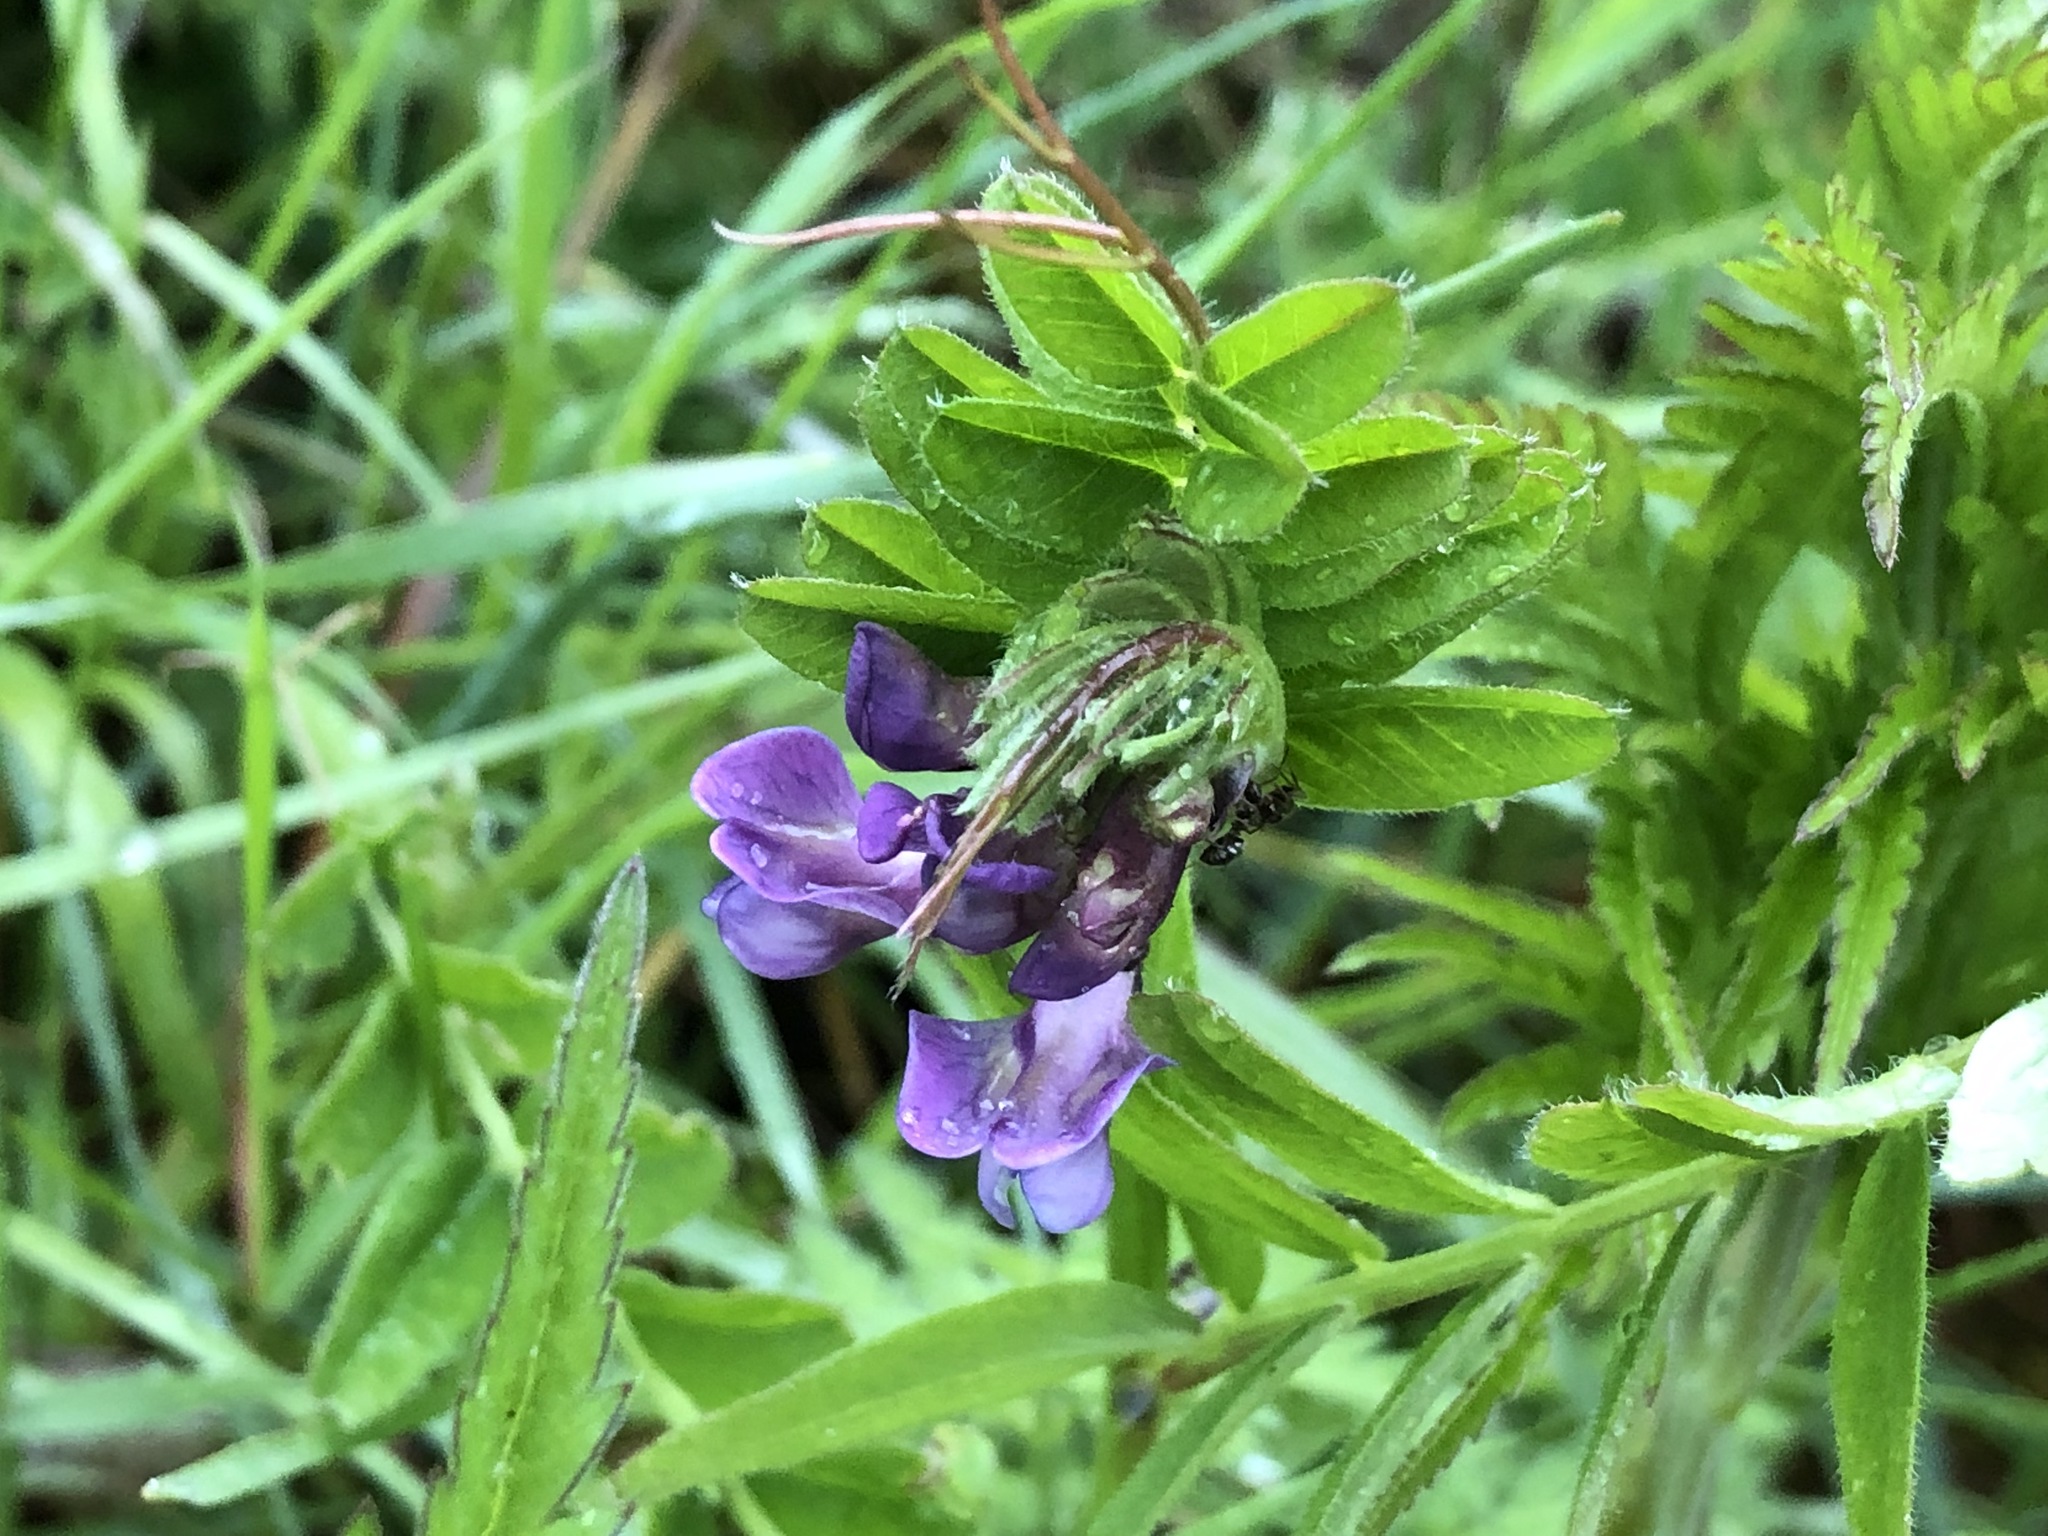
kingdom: Plantae
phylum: Tracheophyta
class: Magnoliopsida
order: Fabales
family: Fabaceae
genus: Vicia
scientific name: Vicia sepium
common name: Bush vetch
